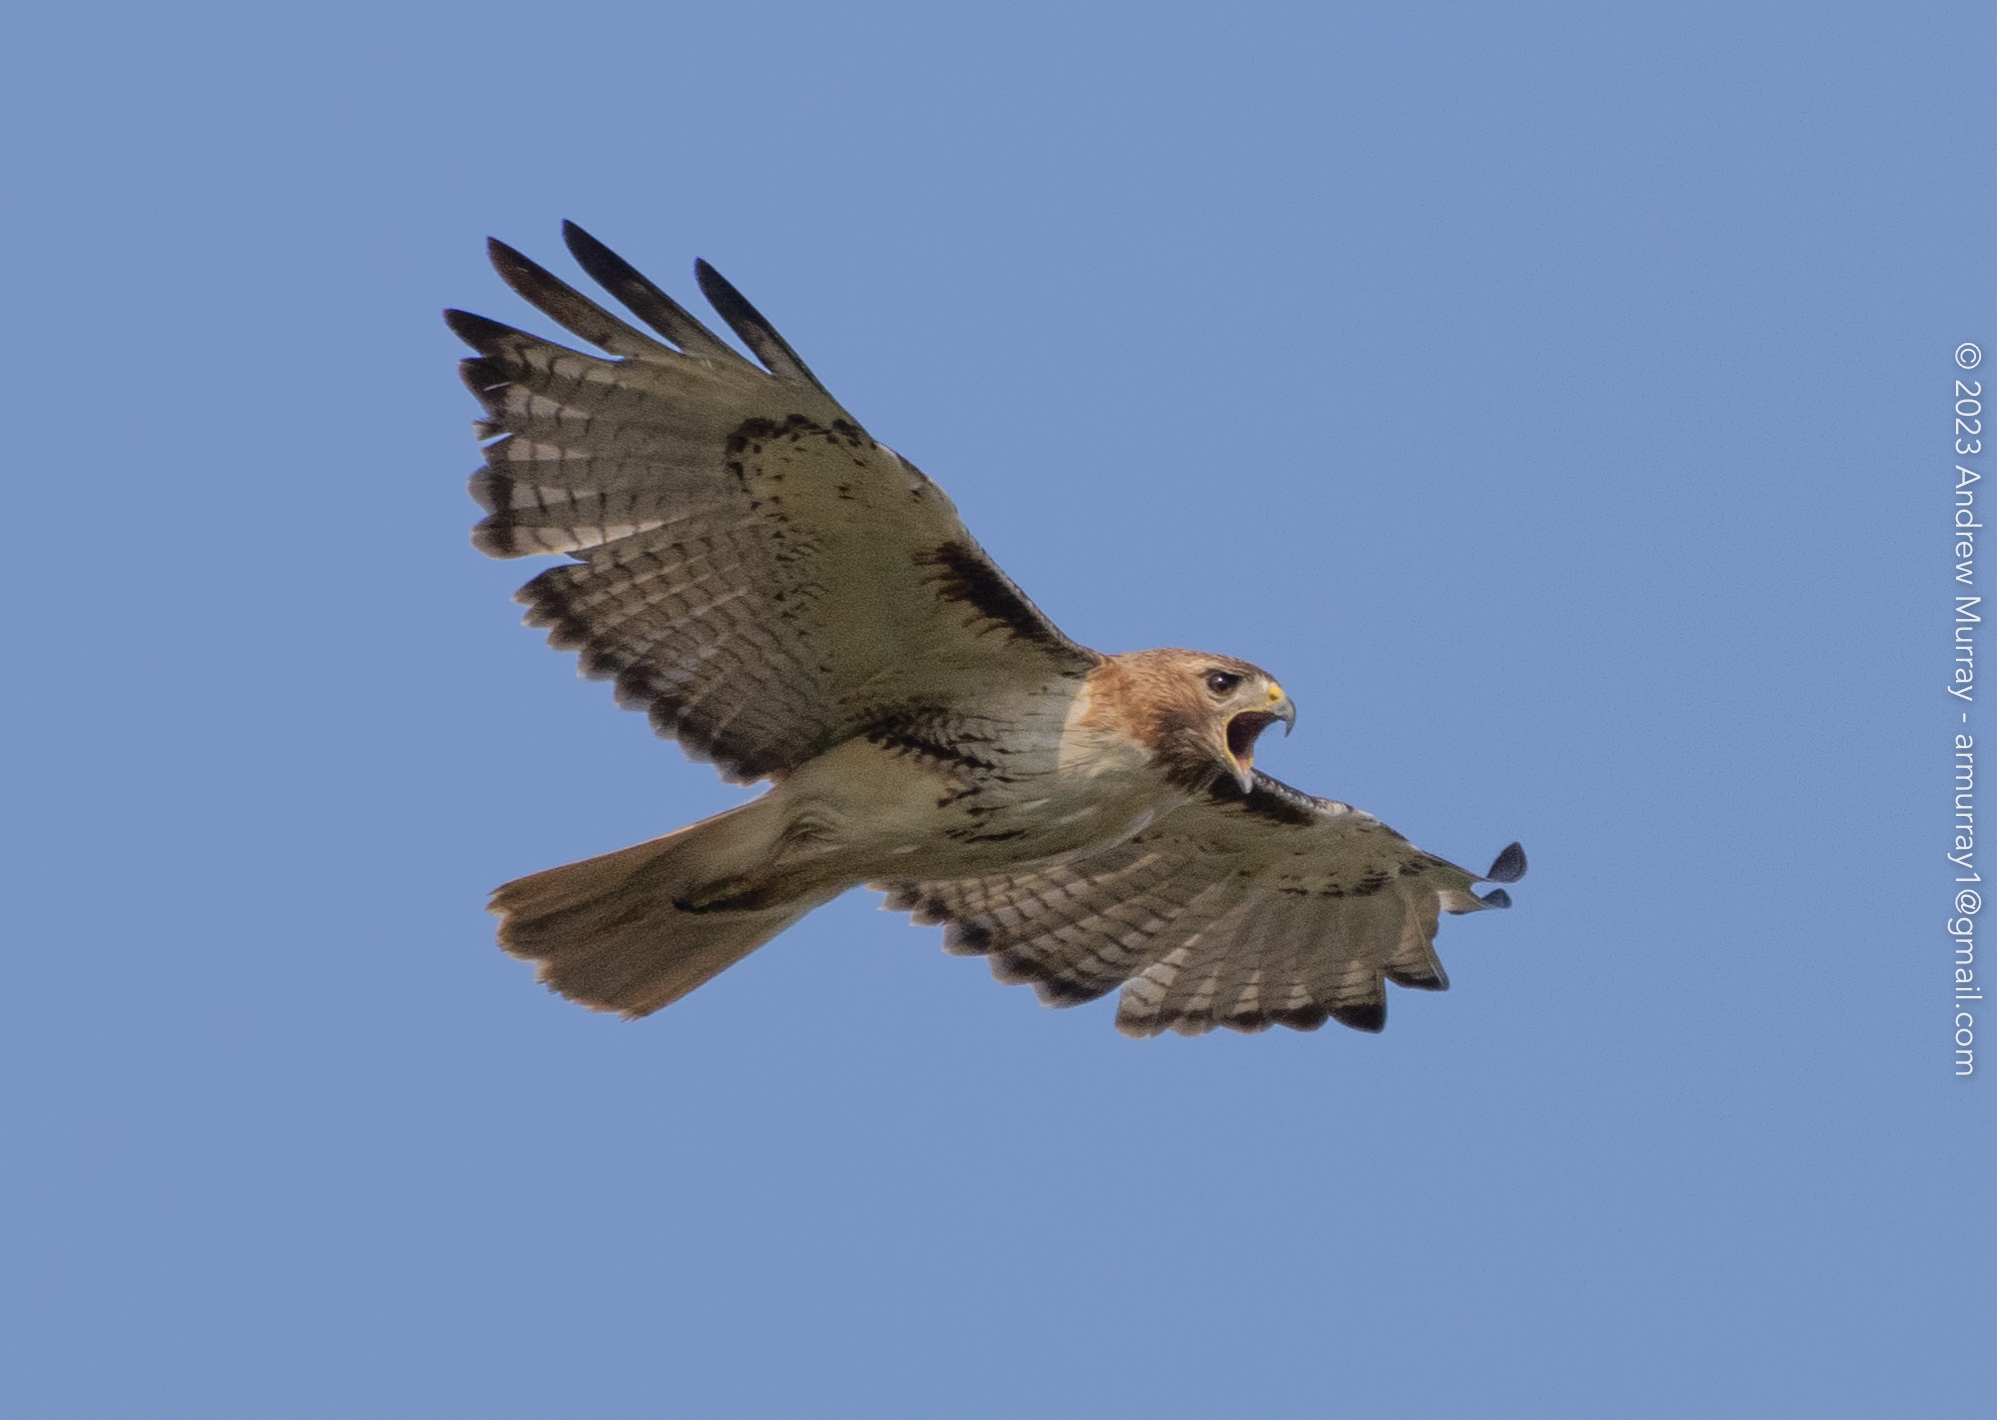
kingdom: Animalia
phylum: Chordata
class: Aves
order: Accipitriformes
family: Accipitridae
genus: Buteo
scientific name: Buteo jamaicensis
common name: Red-tailed hawk
